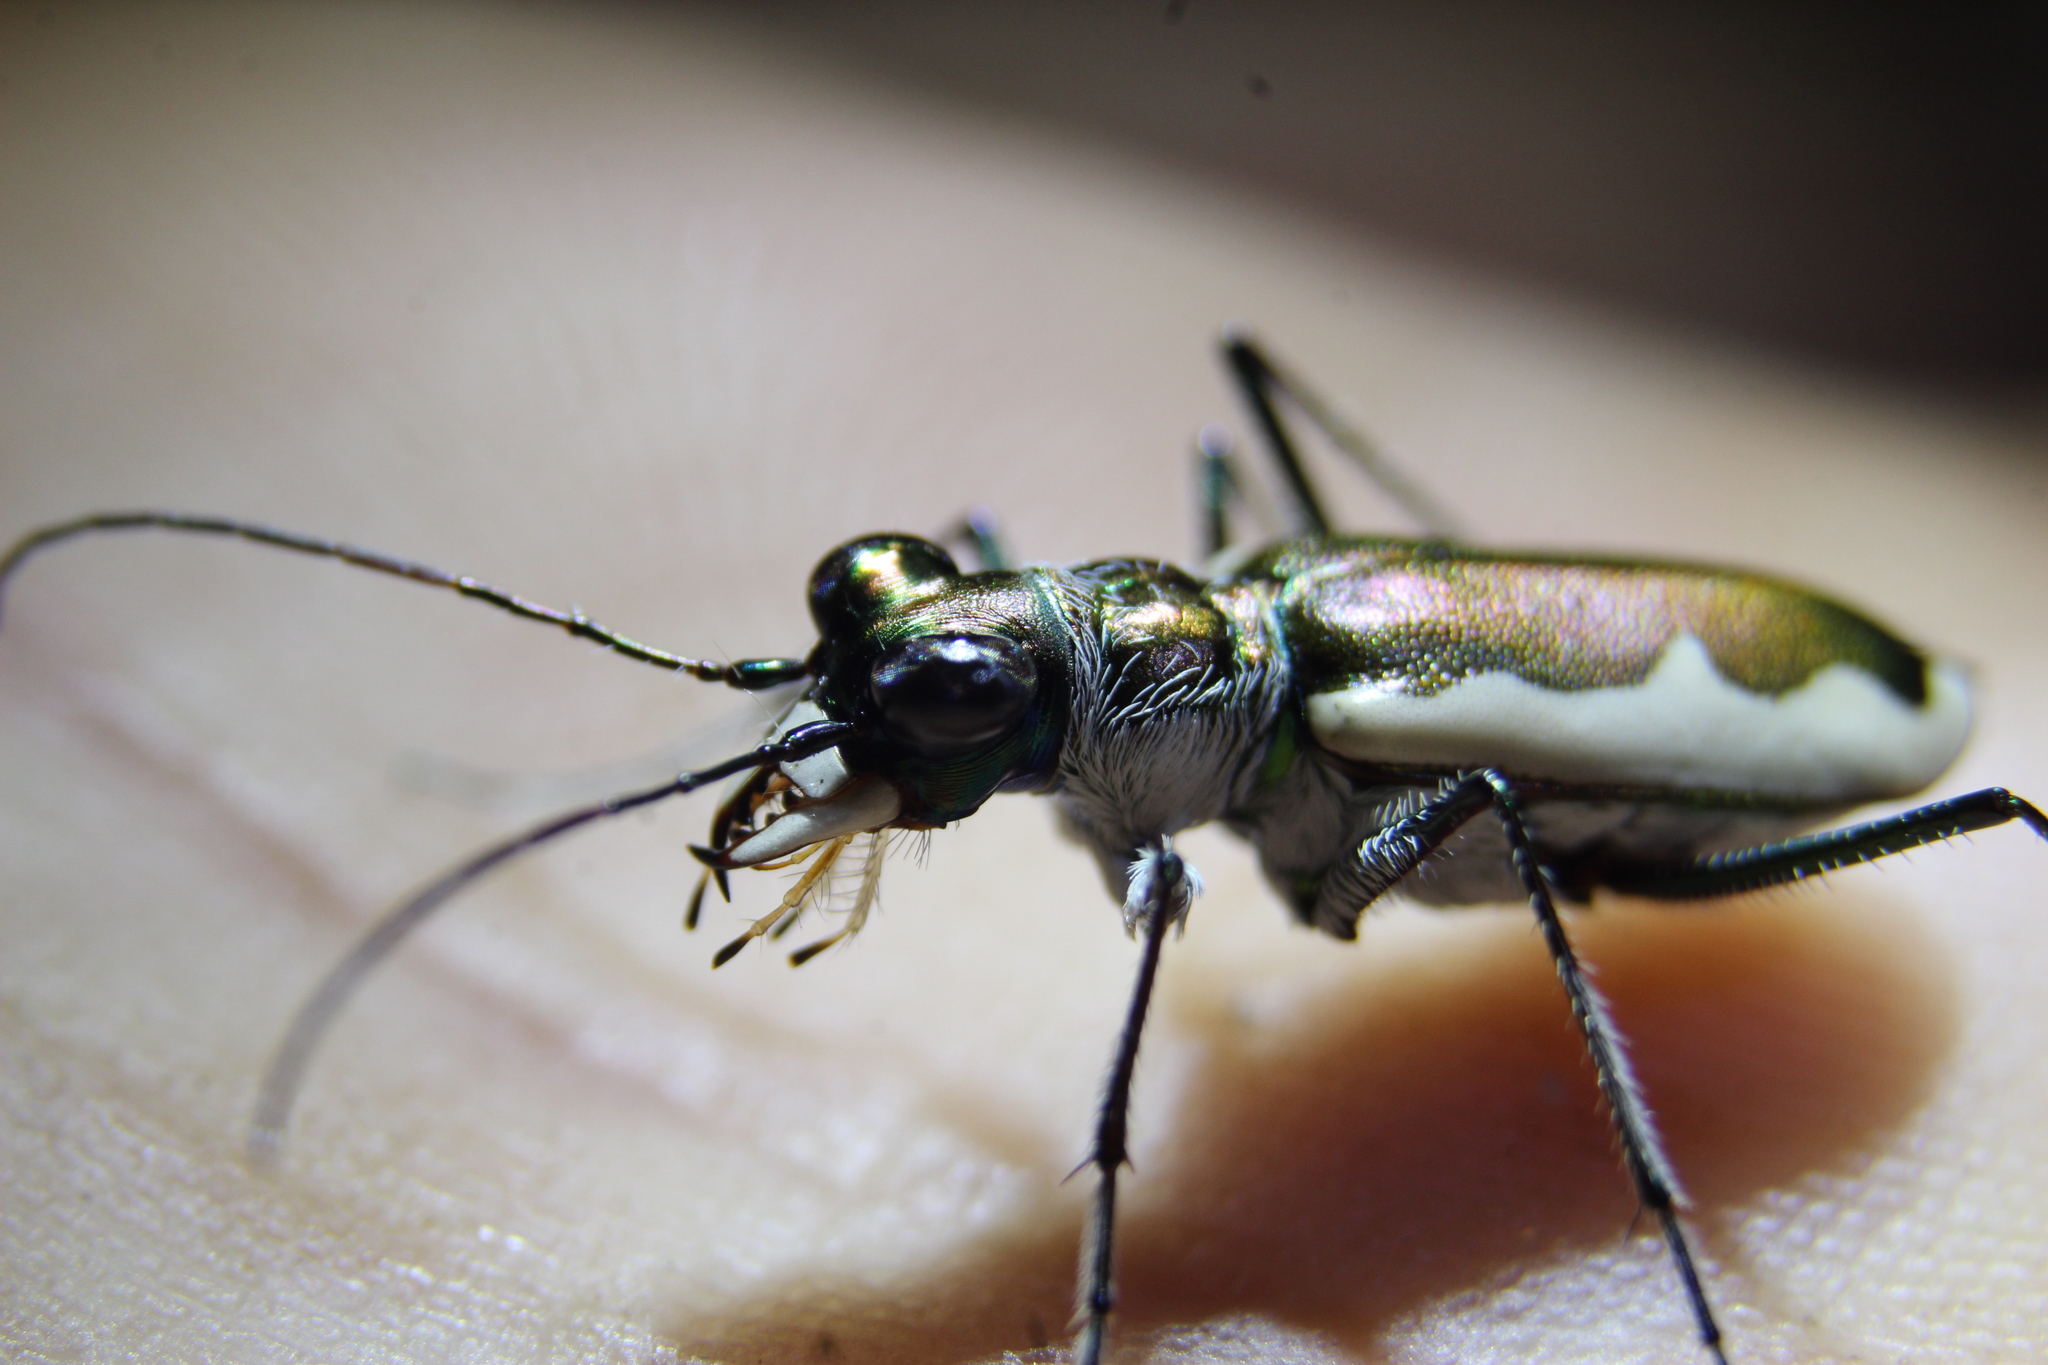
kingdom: Animalia
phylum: Arthropoda
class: Insecta
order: Coleoptera
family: Carabidae
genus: Eunota
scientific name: Eunota circumpicta
